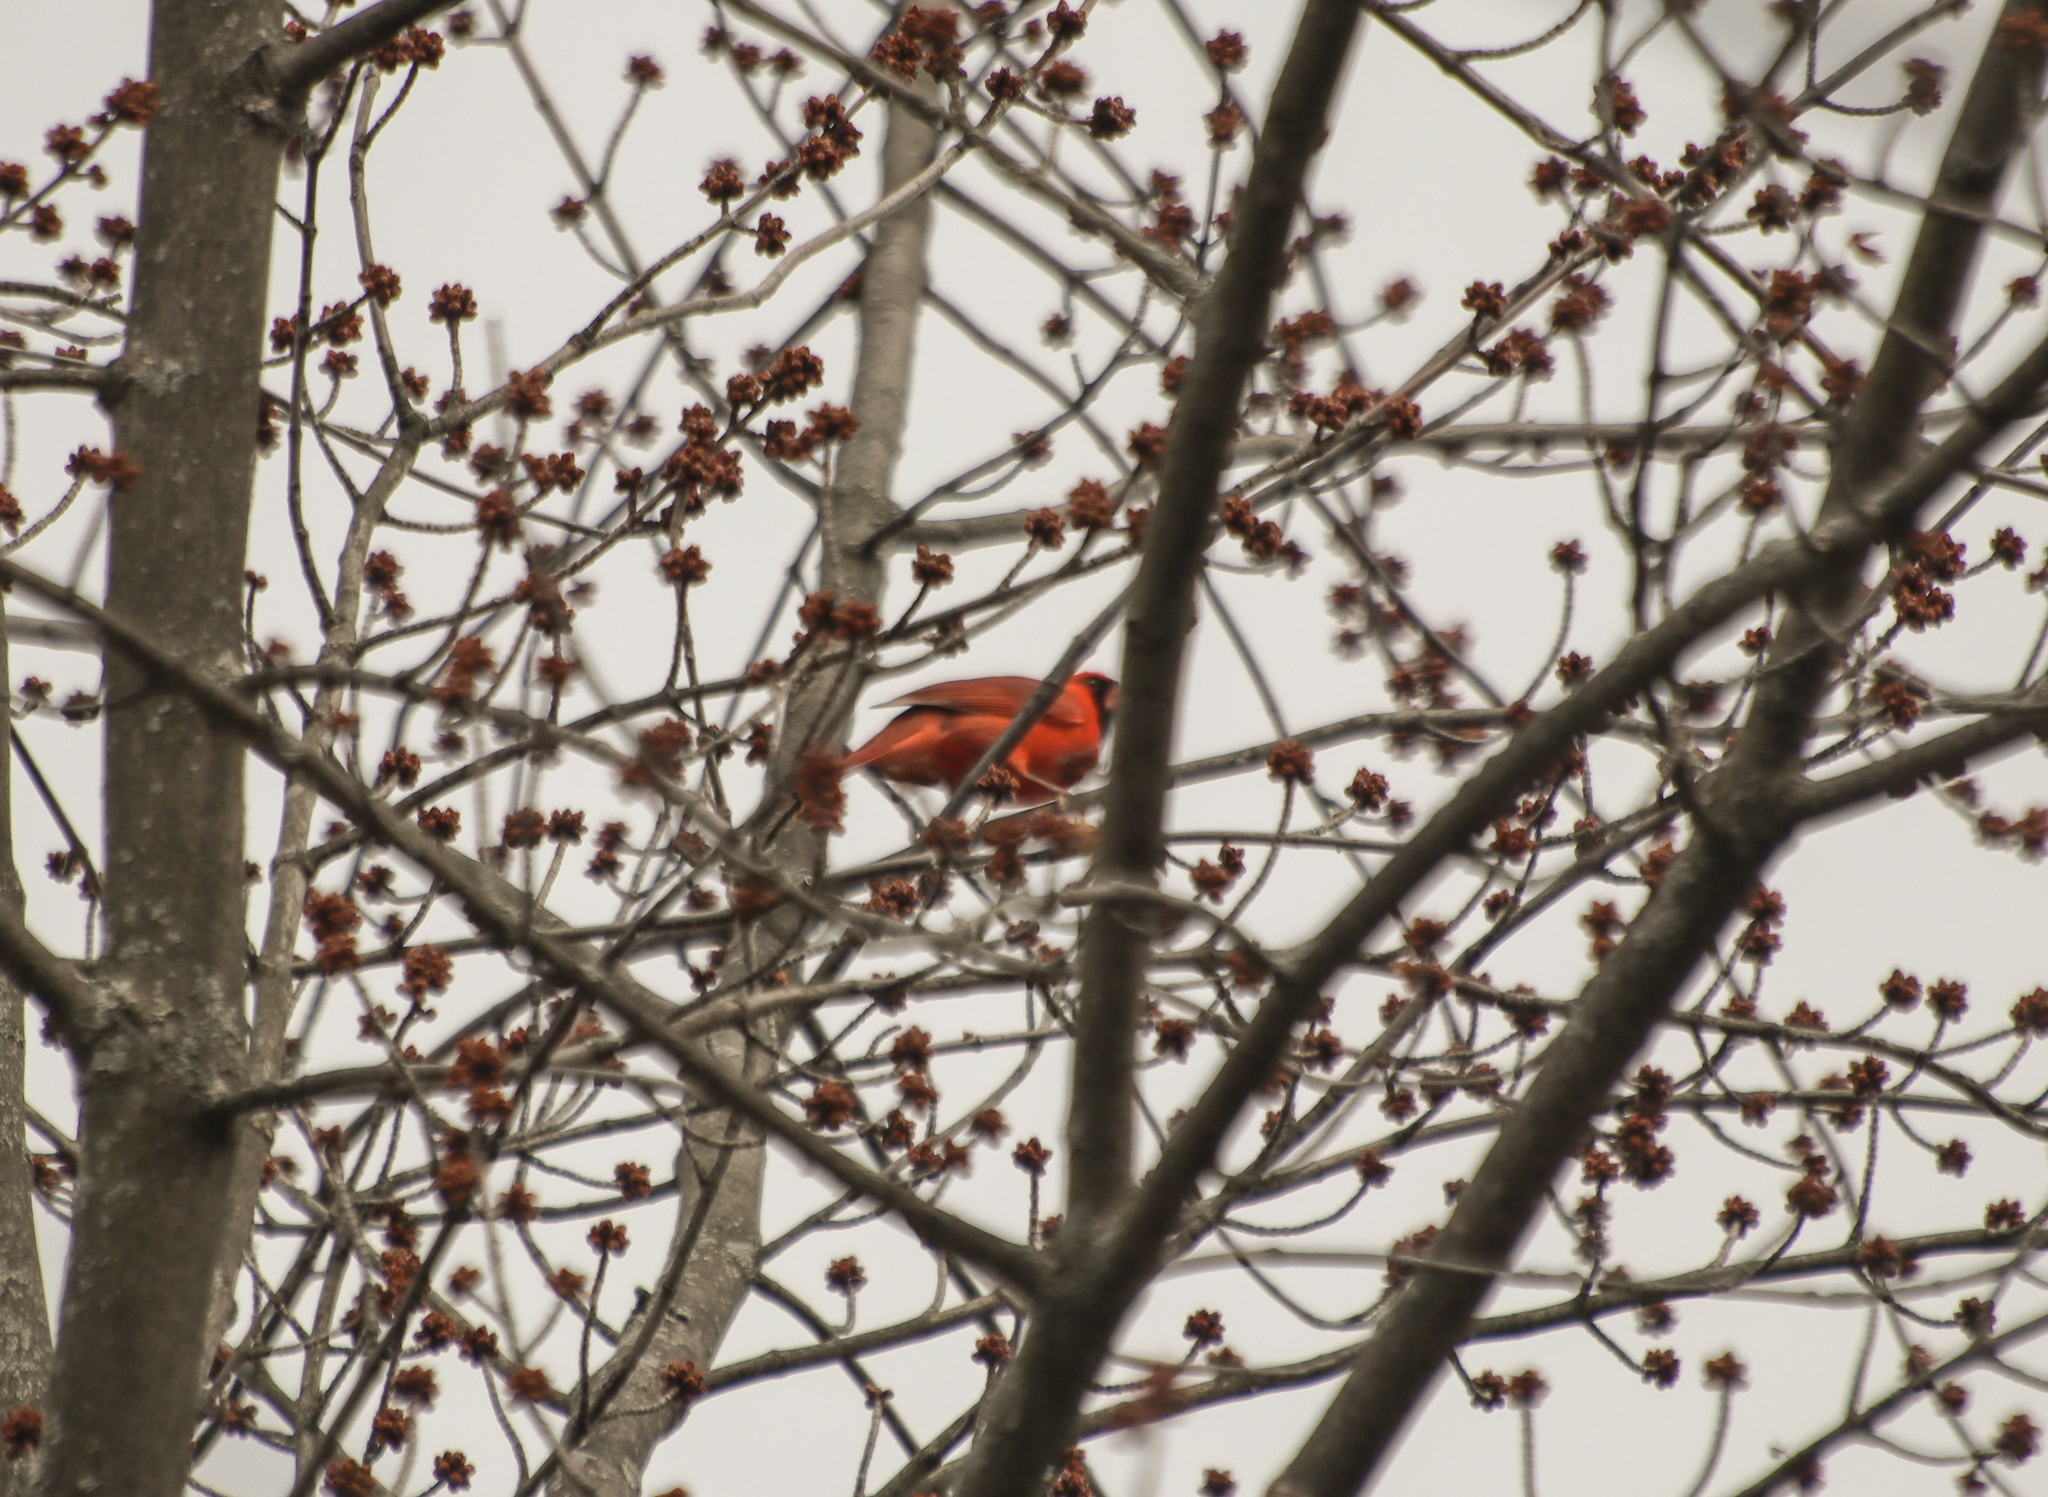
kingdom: Animalia
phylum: Chordata
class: Aves
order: Passeriformes
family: Cardinalidae
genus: Cardinalis
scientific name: Cardinalis cardinalis
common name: Northern cardinal
